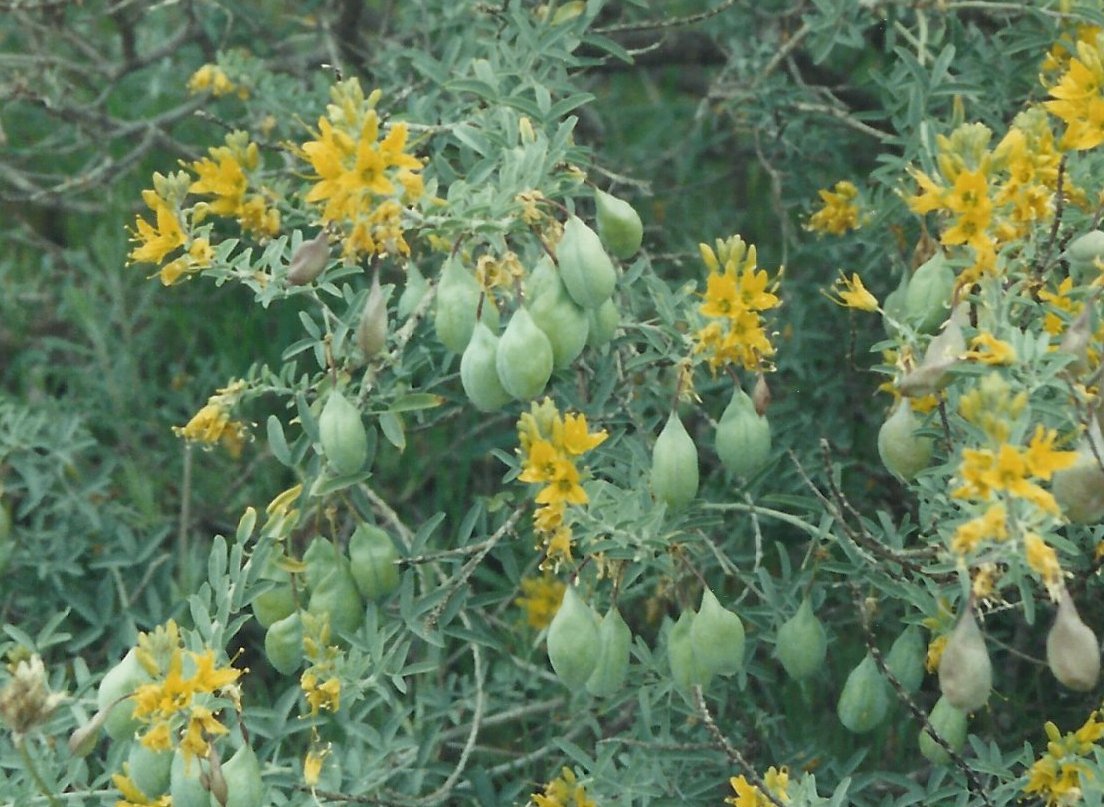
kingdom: Plantae
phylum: Tracheophyta
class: Magnoliopsida
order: Brassicales
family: Cleomaceae
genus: Cleomella
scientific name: Cleomella arborea
